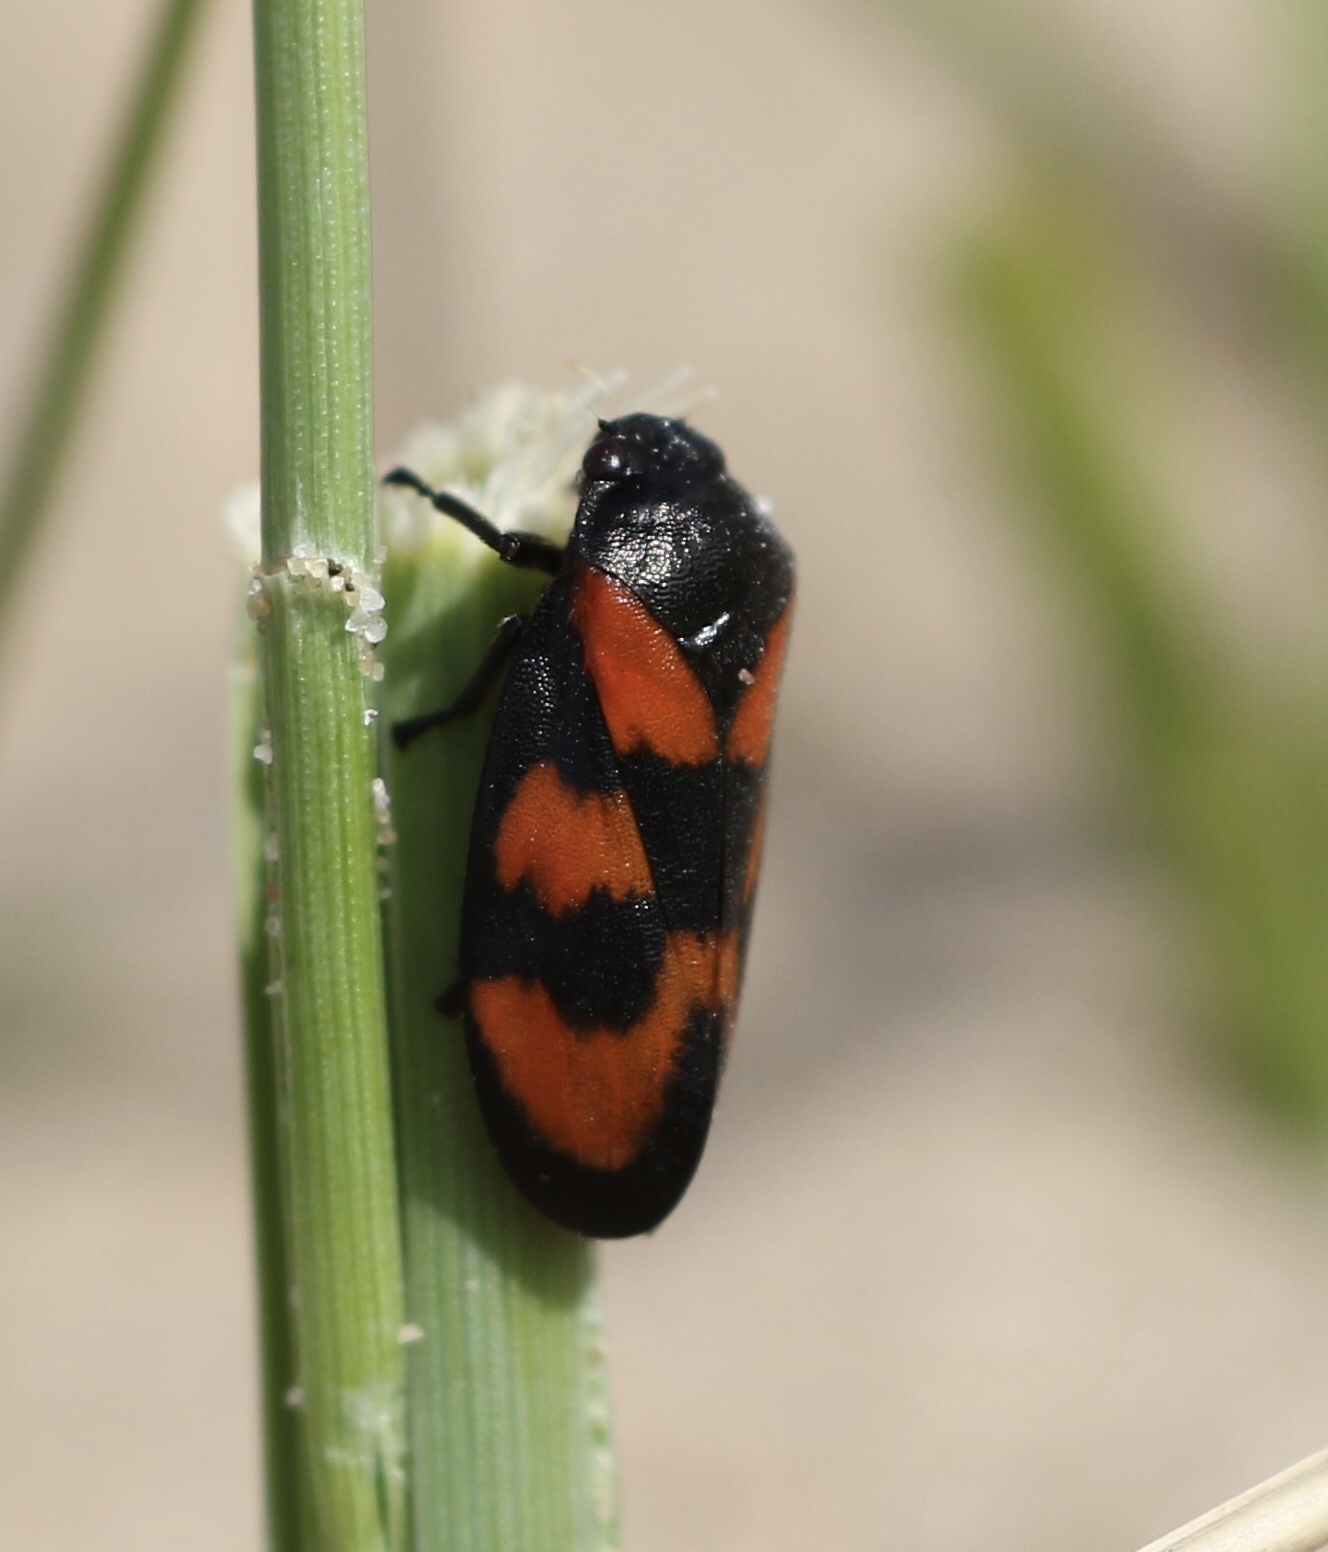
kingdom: Animalia
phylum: Arthropoda
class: Insecta
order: Hemiptera
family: Cercopidae
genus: Cercopis
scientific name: Cercopis vulnerata
